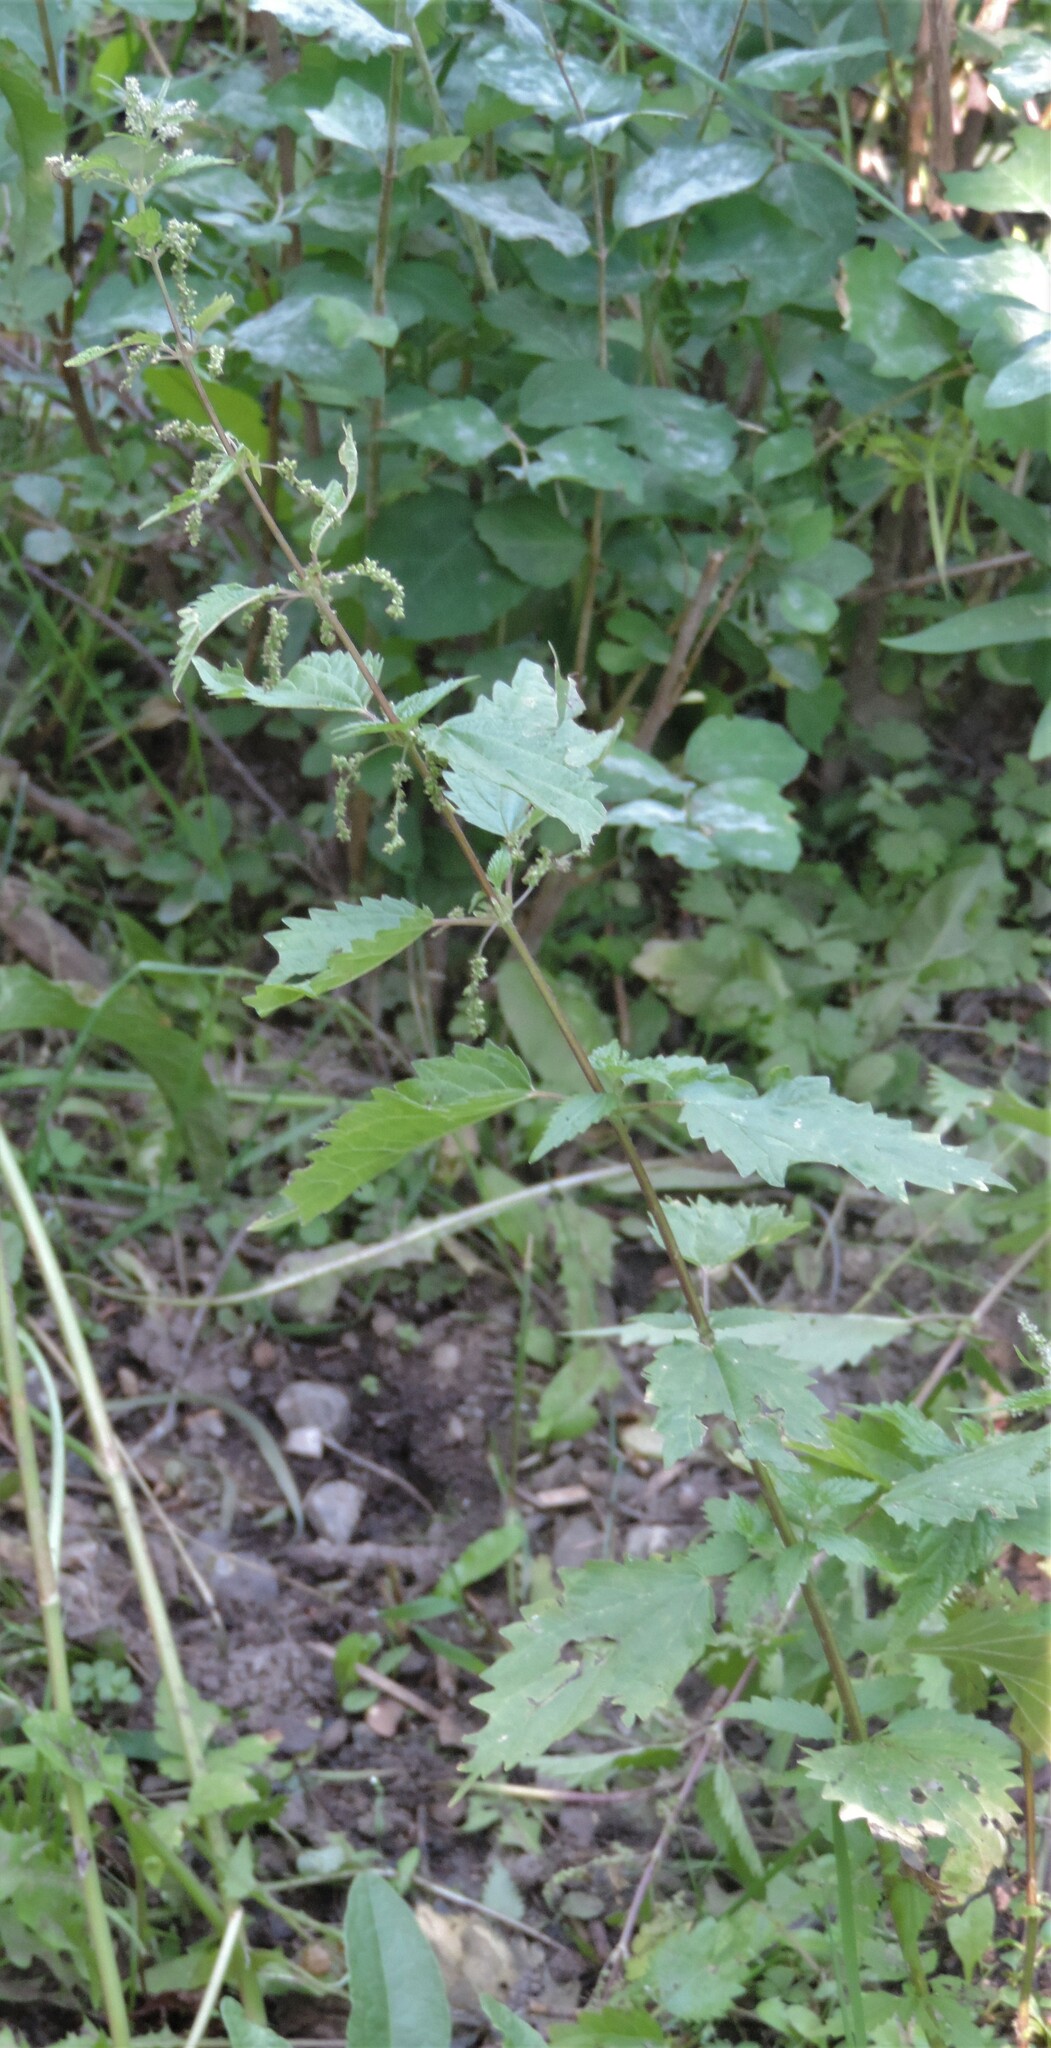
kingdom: Plantae
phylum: Tracheophyta
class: Magnoliopsida
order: Rosales
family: Urticaceae
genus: Urtica
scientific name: Urtica gracilis
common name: Slender stinging nettle
